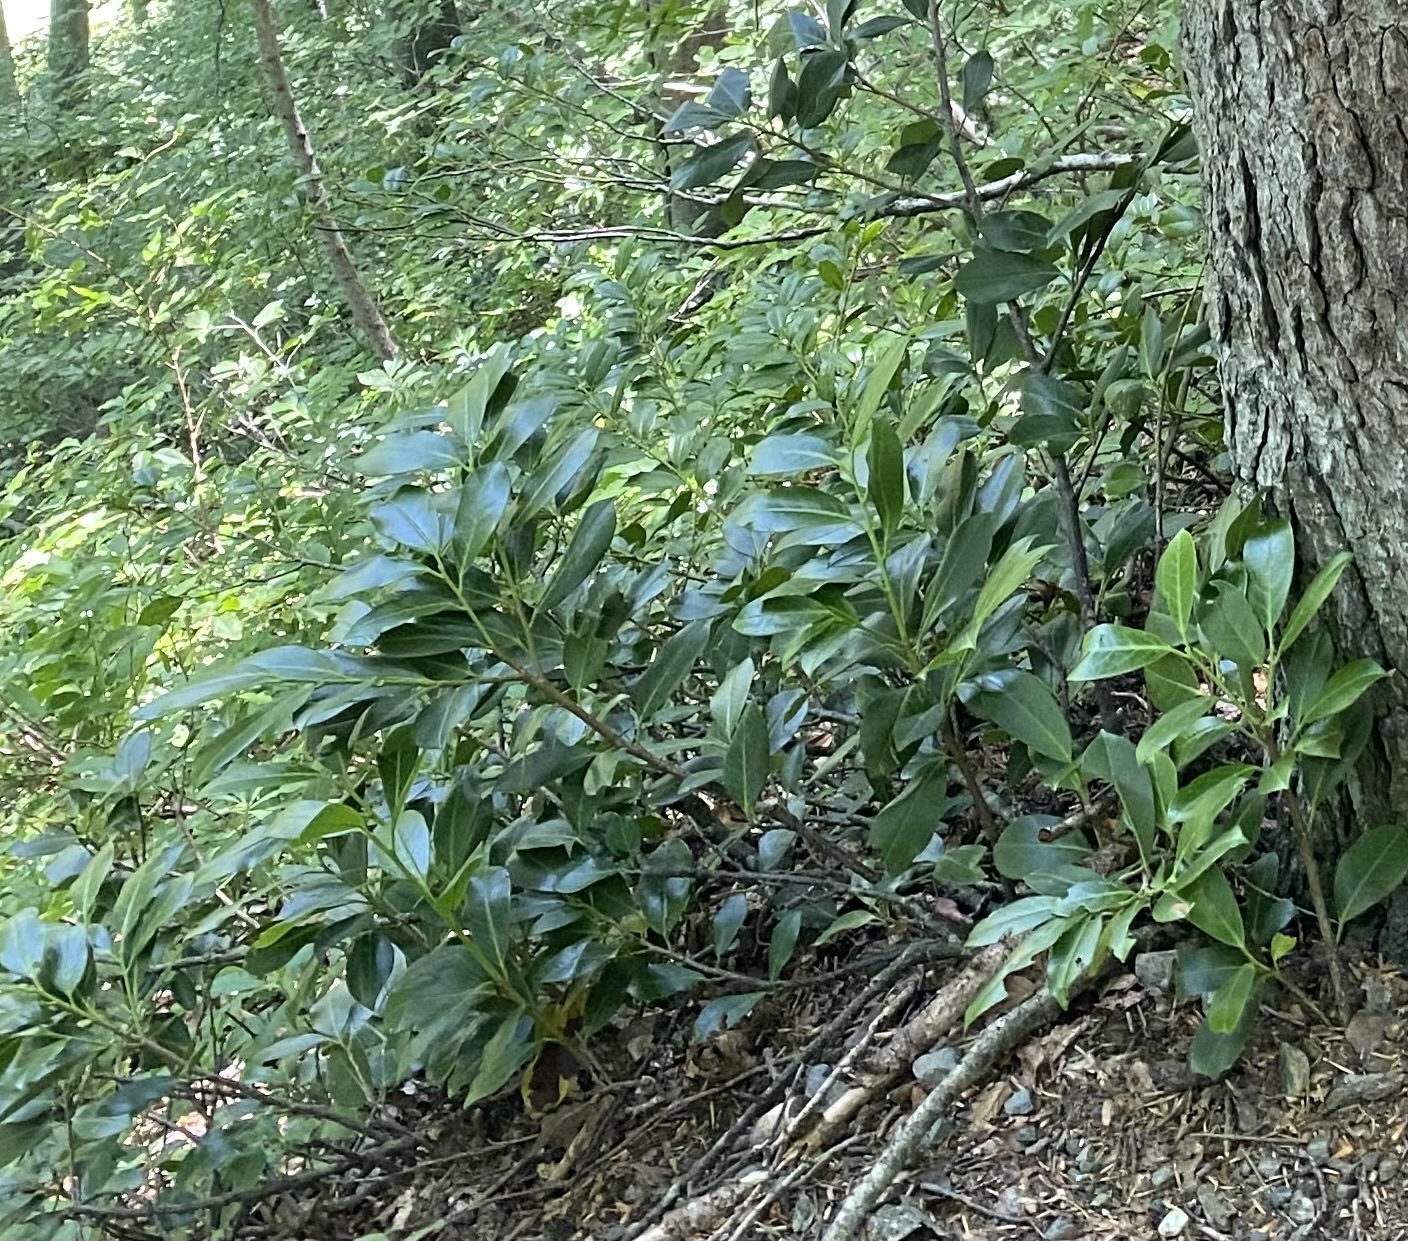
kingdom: Plantae
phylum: Tracheophyta
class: Magnoliopsida
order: Rosales
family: Rosaceae
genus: Prunus
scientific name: Prunus laurocerasus
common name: Cherry laurel
